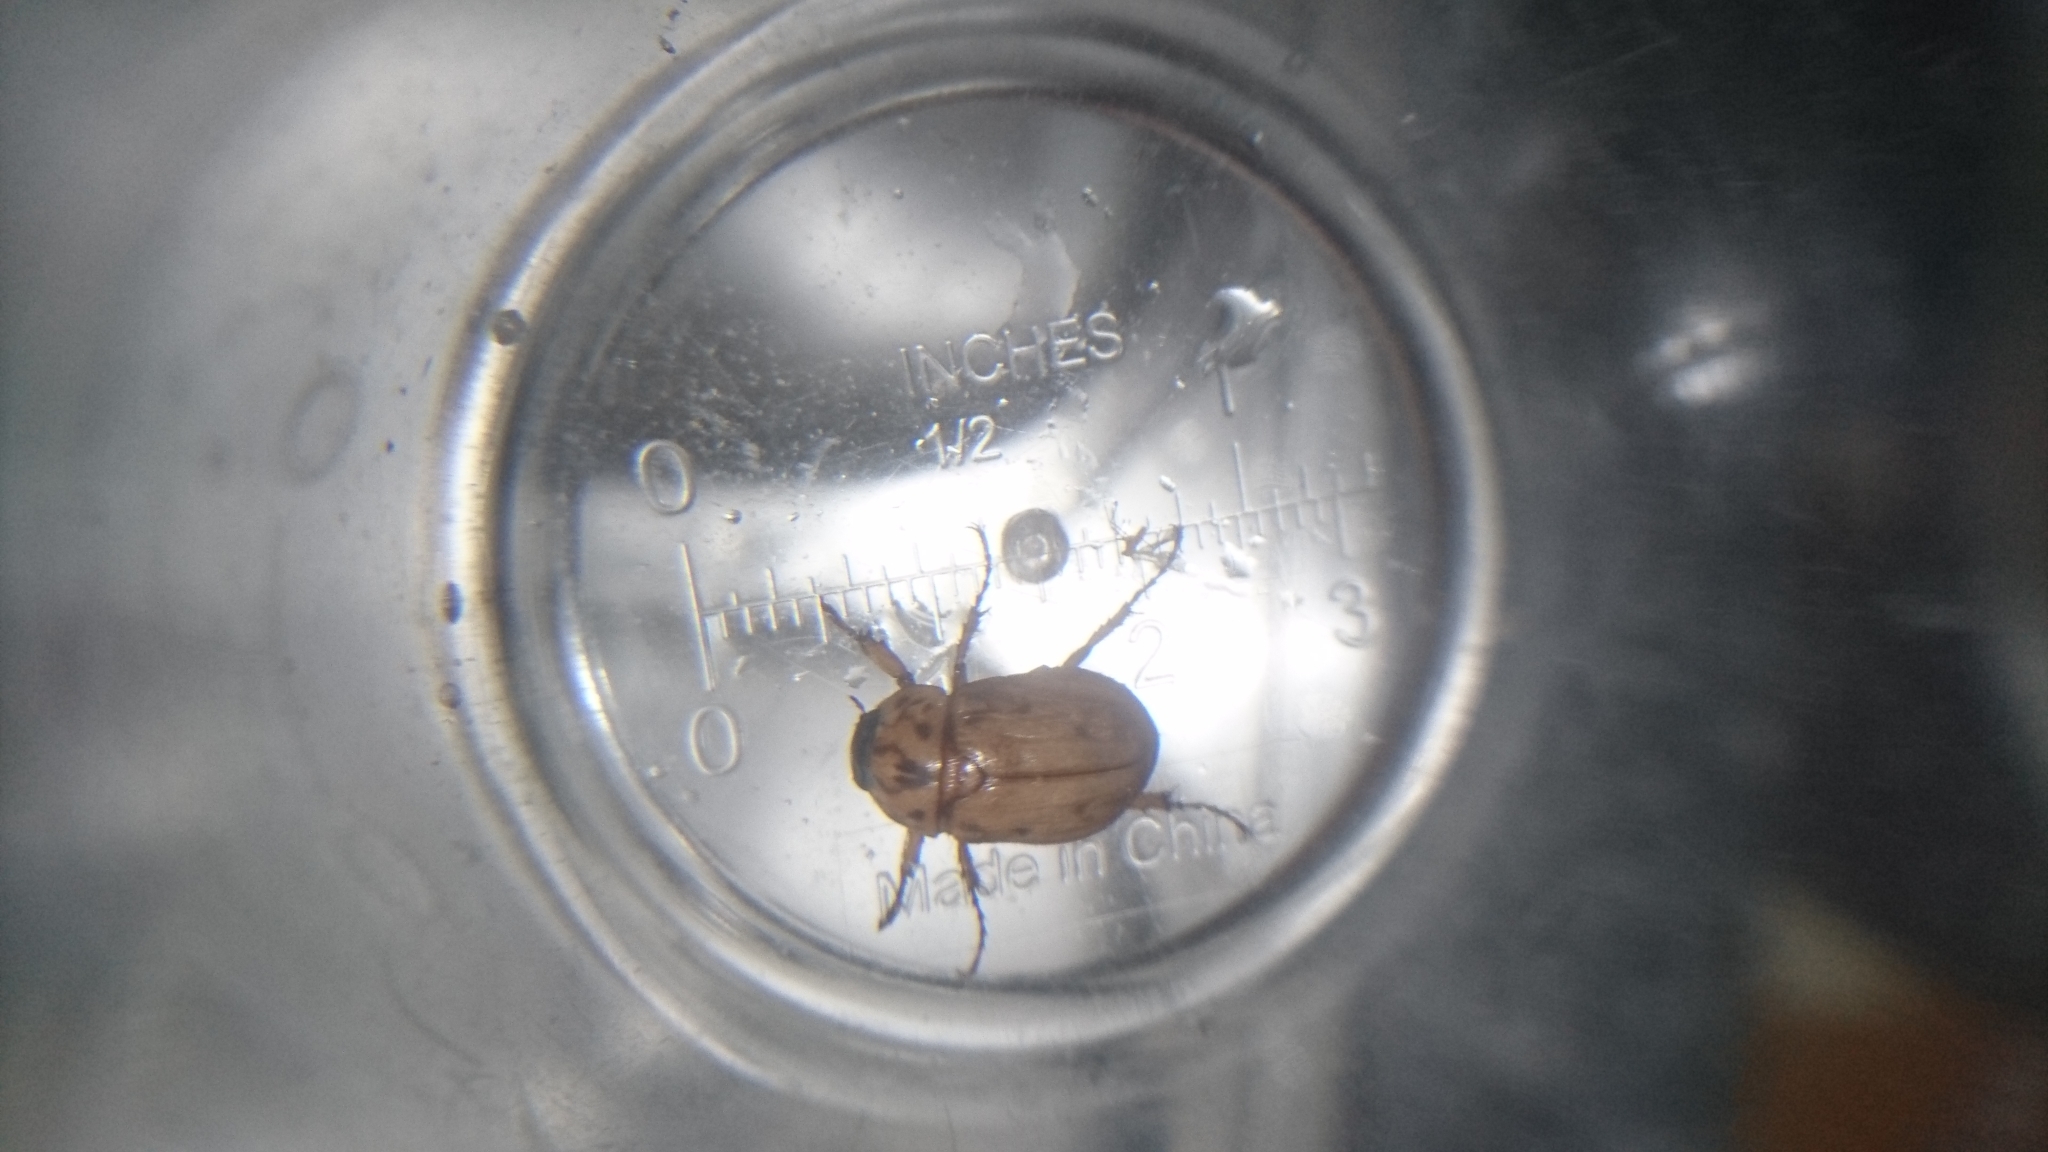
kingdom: Animalia
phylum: Arthropoda
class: Insecta
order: Coleoptera
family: Scarabaeidae
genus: Cyclocephala
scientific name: Cyclocephala signaticollis
